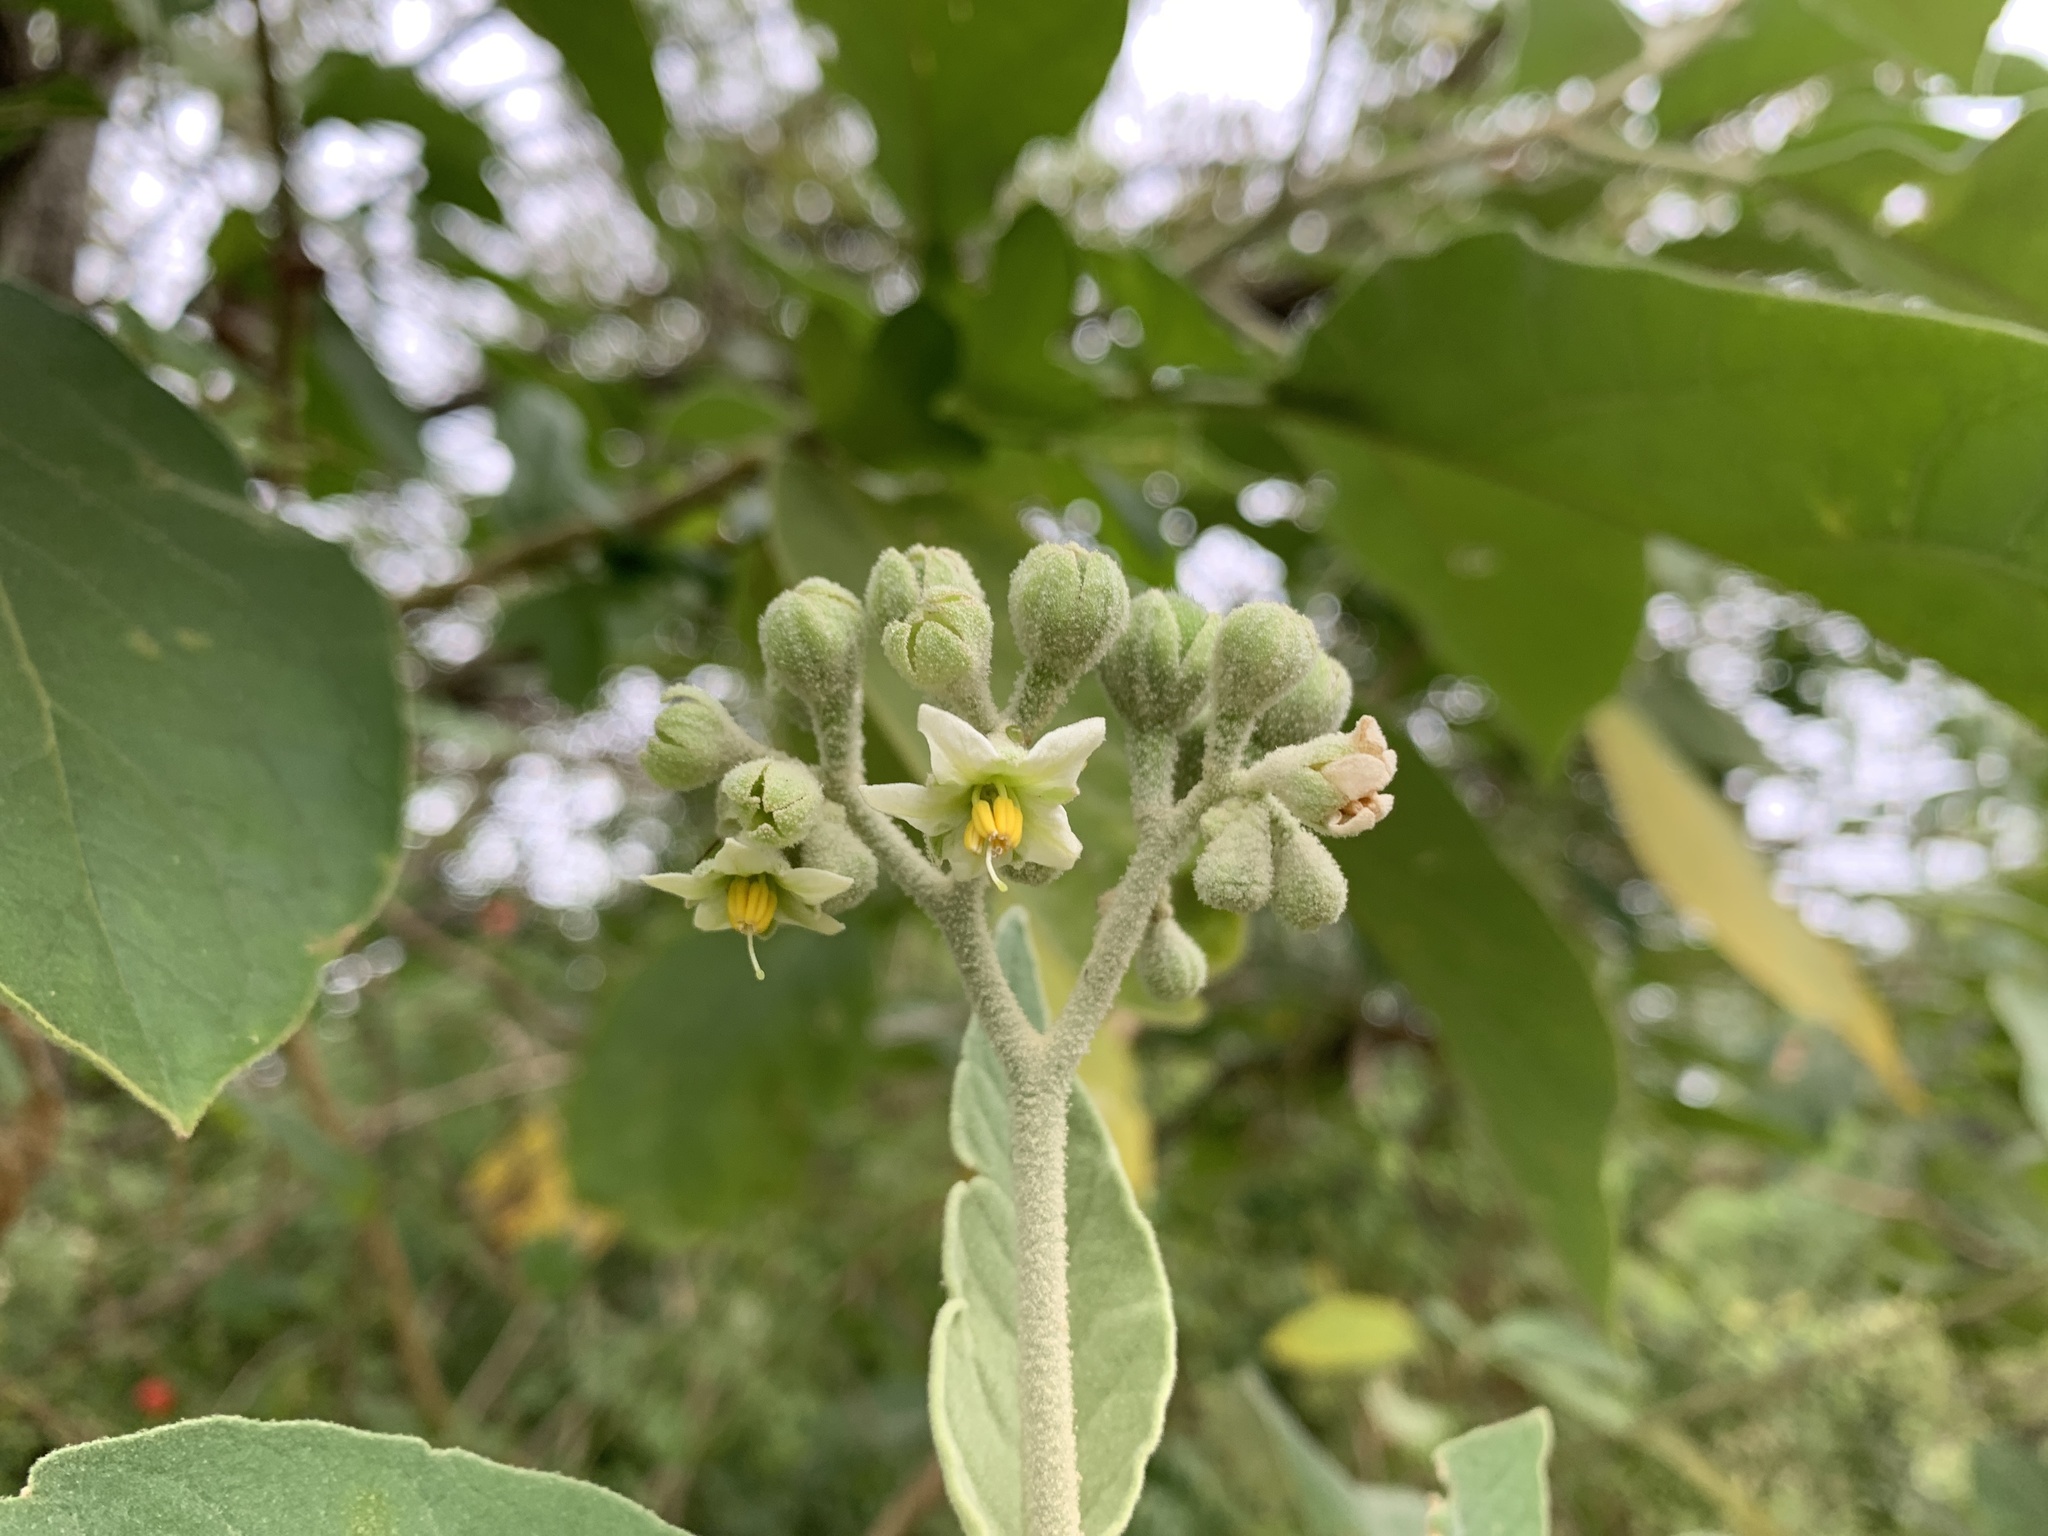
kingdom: Plantae
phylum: Tracheophyta
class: Magnoliopsida
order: Solanales
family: Solanaceae
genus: Solanum
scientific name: Solanum erianthum
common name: Tobacco-tree
